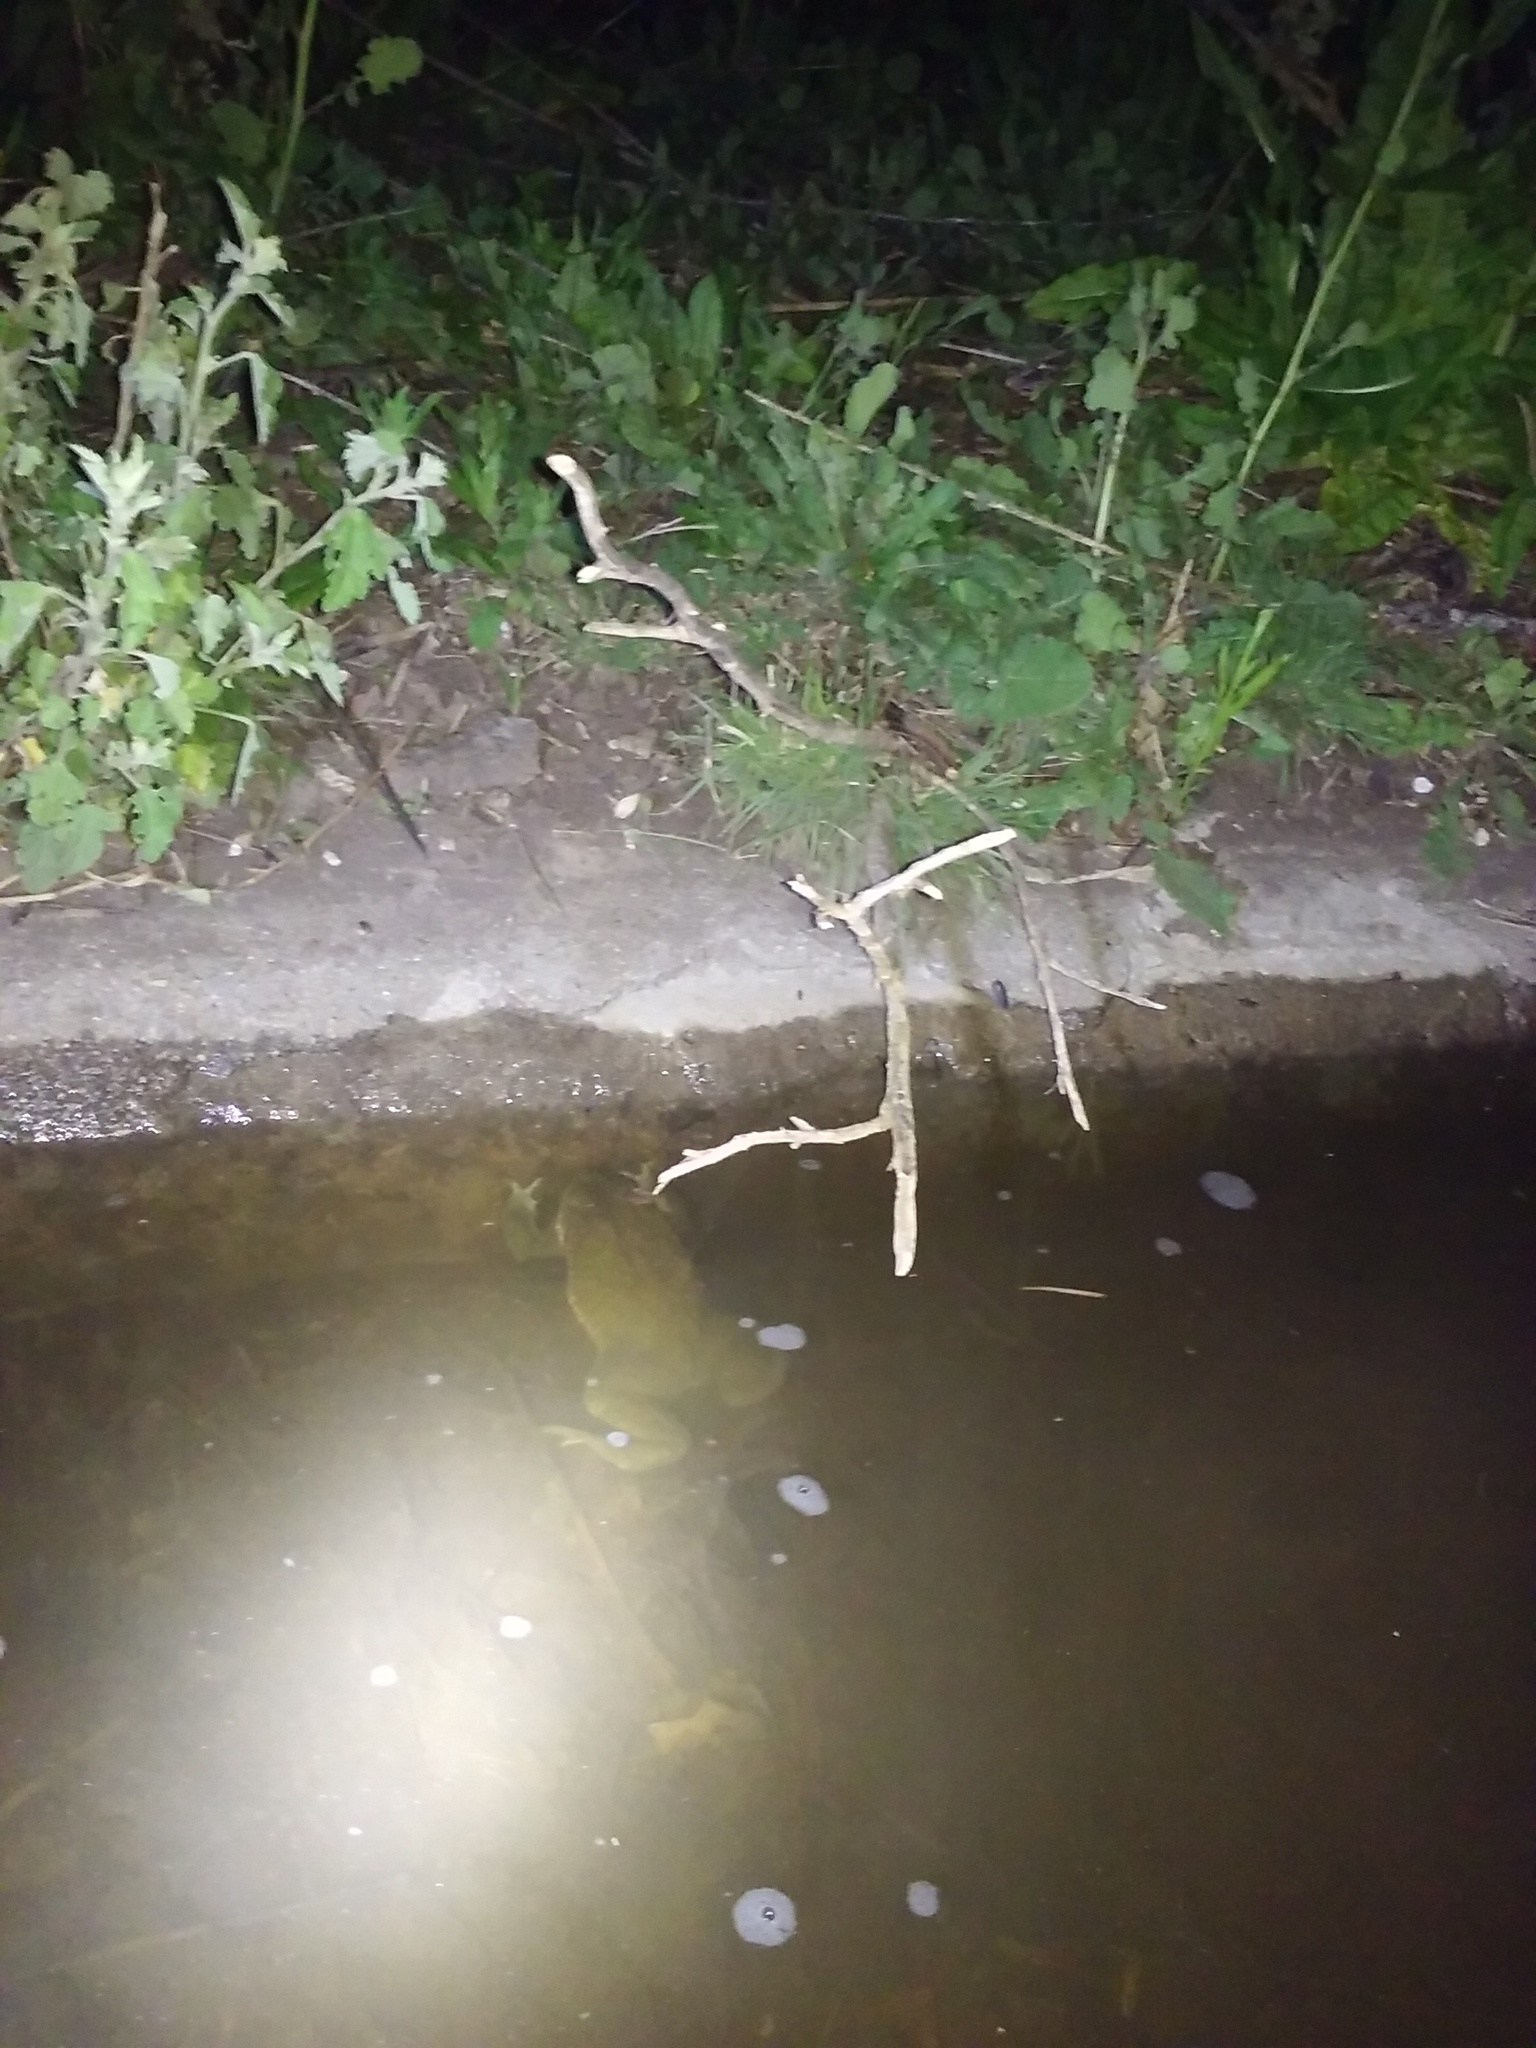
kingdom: Animalia
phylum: Chordata
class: Amphibia
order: Anura
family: Bufonidae
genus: Rhinella
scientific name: Rhinella arenarum
